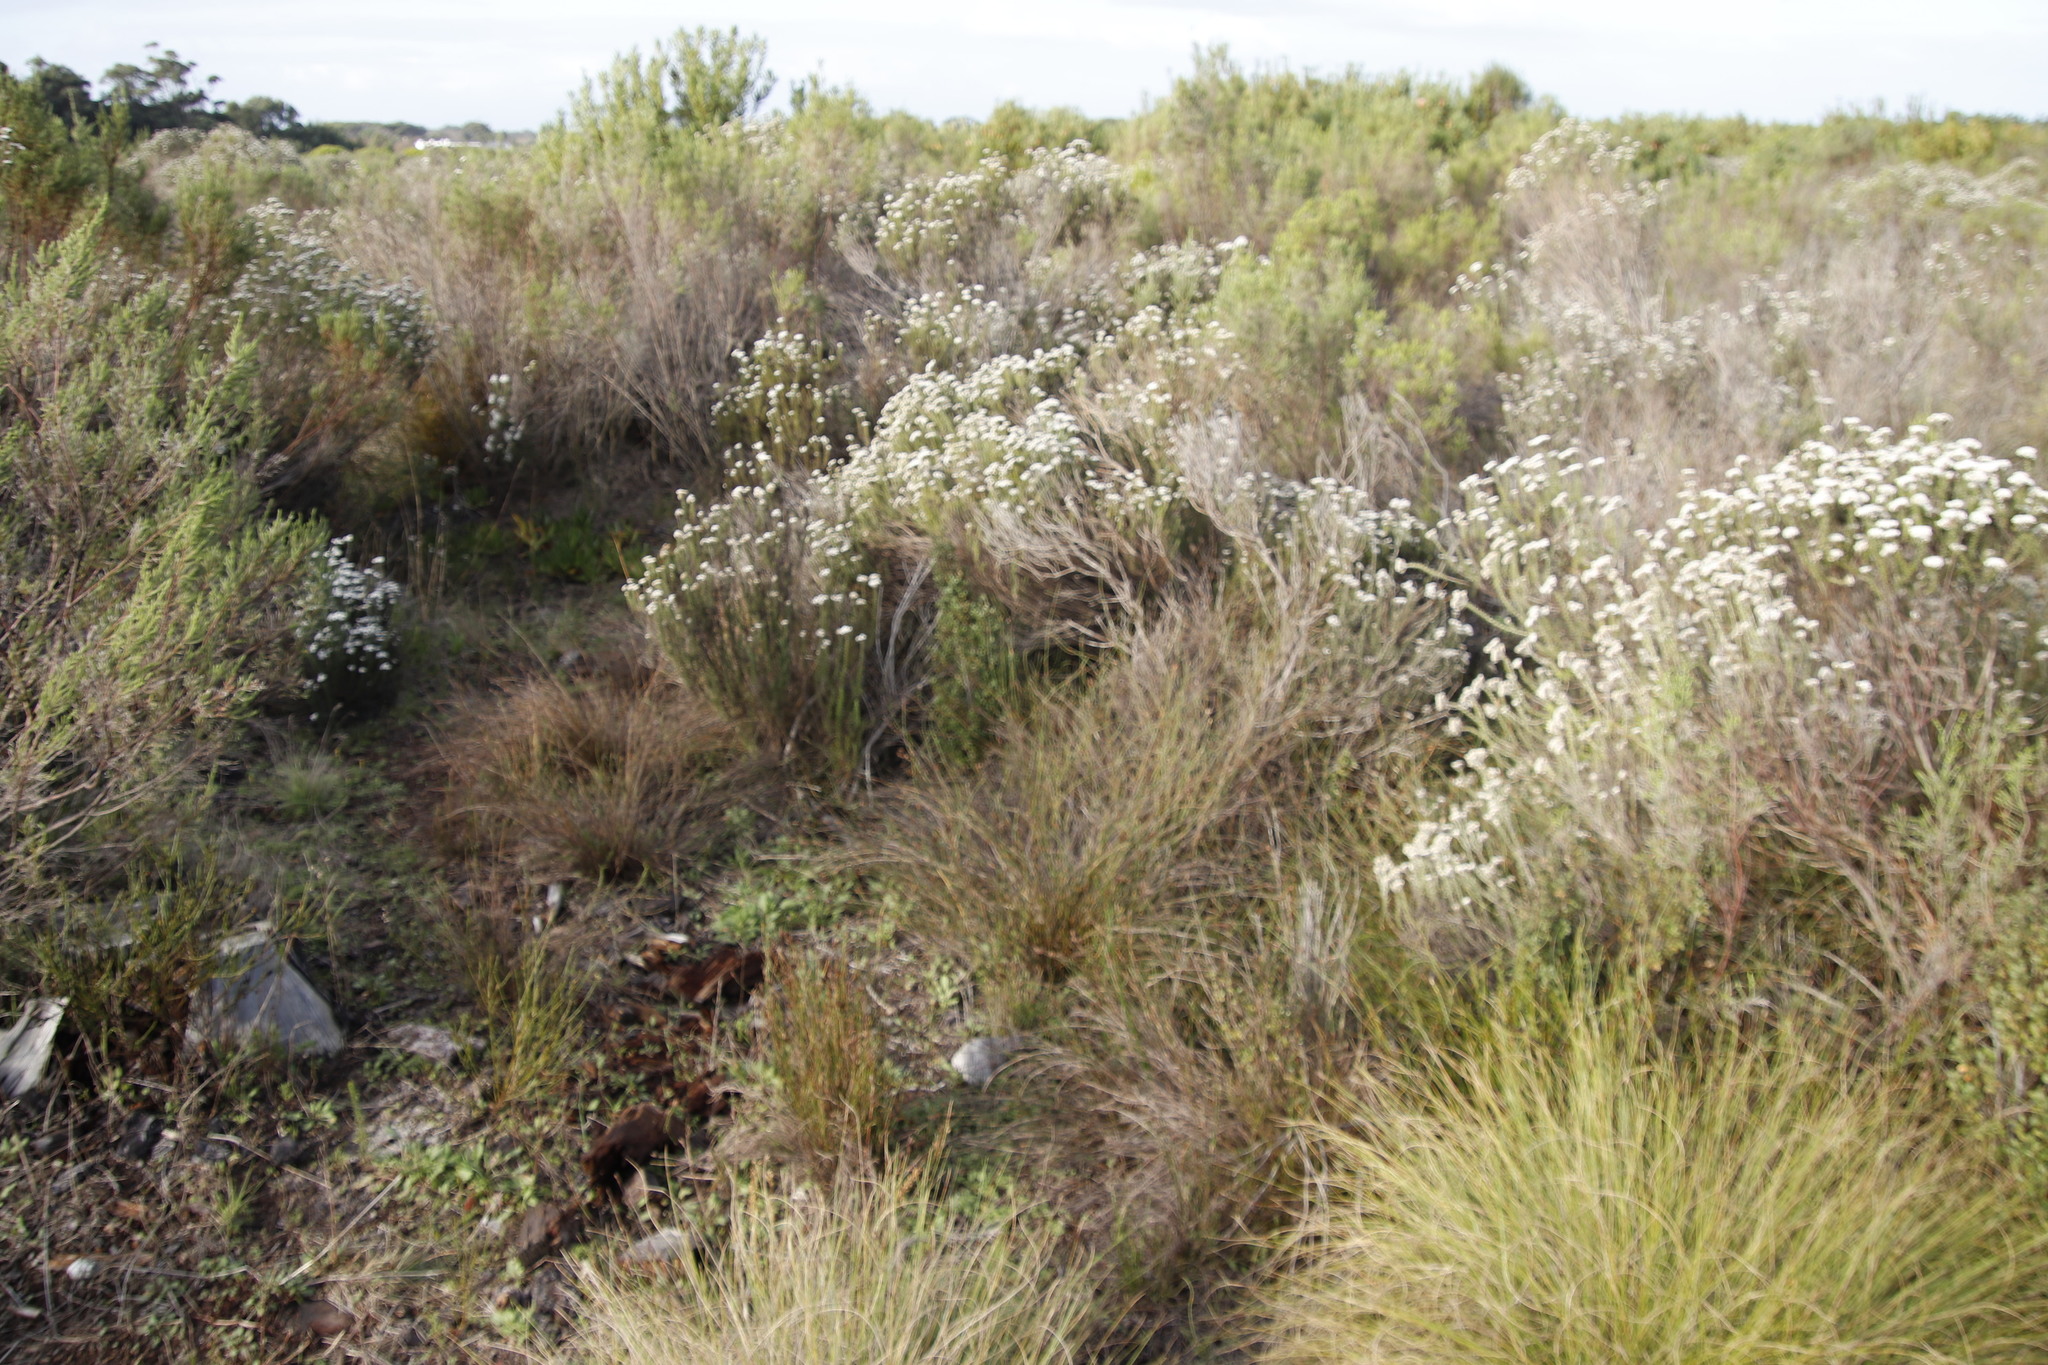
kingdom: Plantae
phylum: Tracheophyta
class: Magnoliopsida
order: Asterales
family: Asteraceae
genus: Metalasia
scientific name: Metalasia densa
